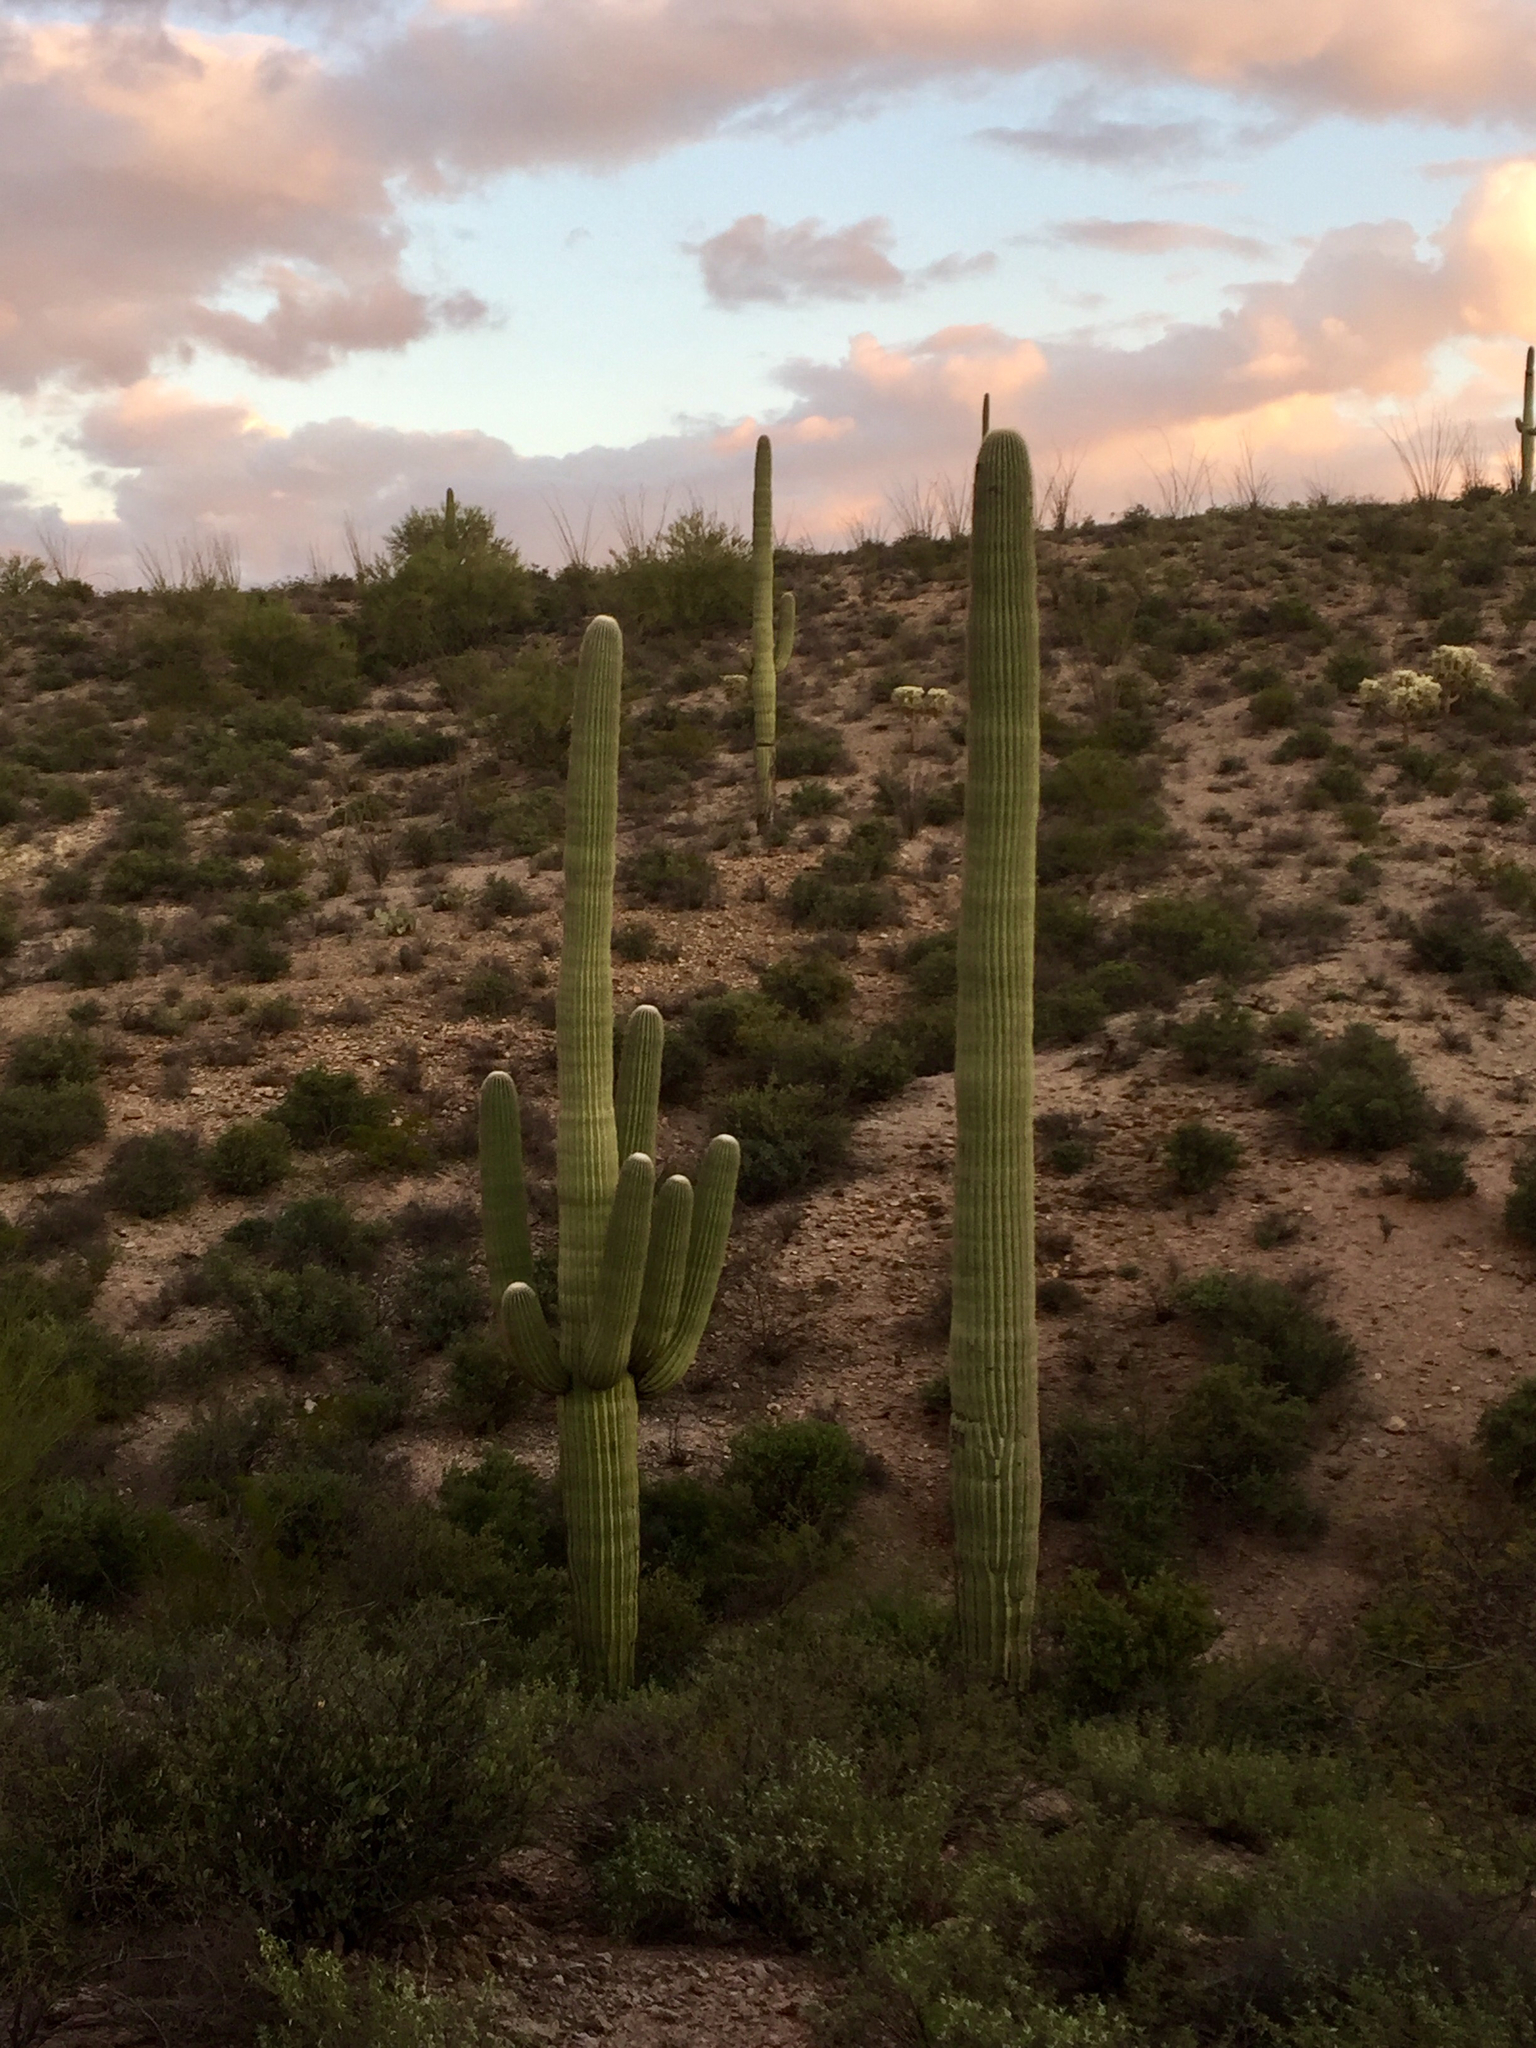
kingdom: Plantae
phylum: Tracheophyta
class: Magnoliopsida
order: Caryophyllales
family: Cactaceae
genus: Carnegiea
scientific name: Carnegiea gigantea
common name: Saguaro
